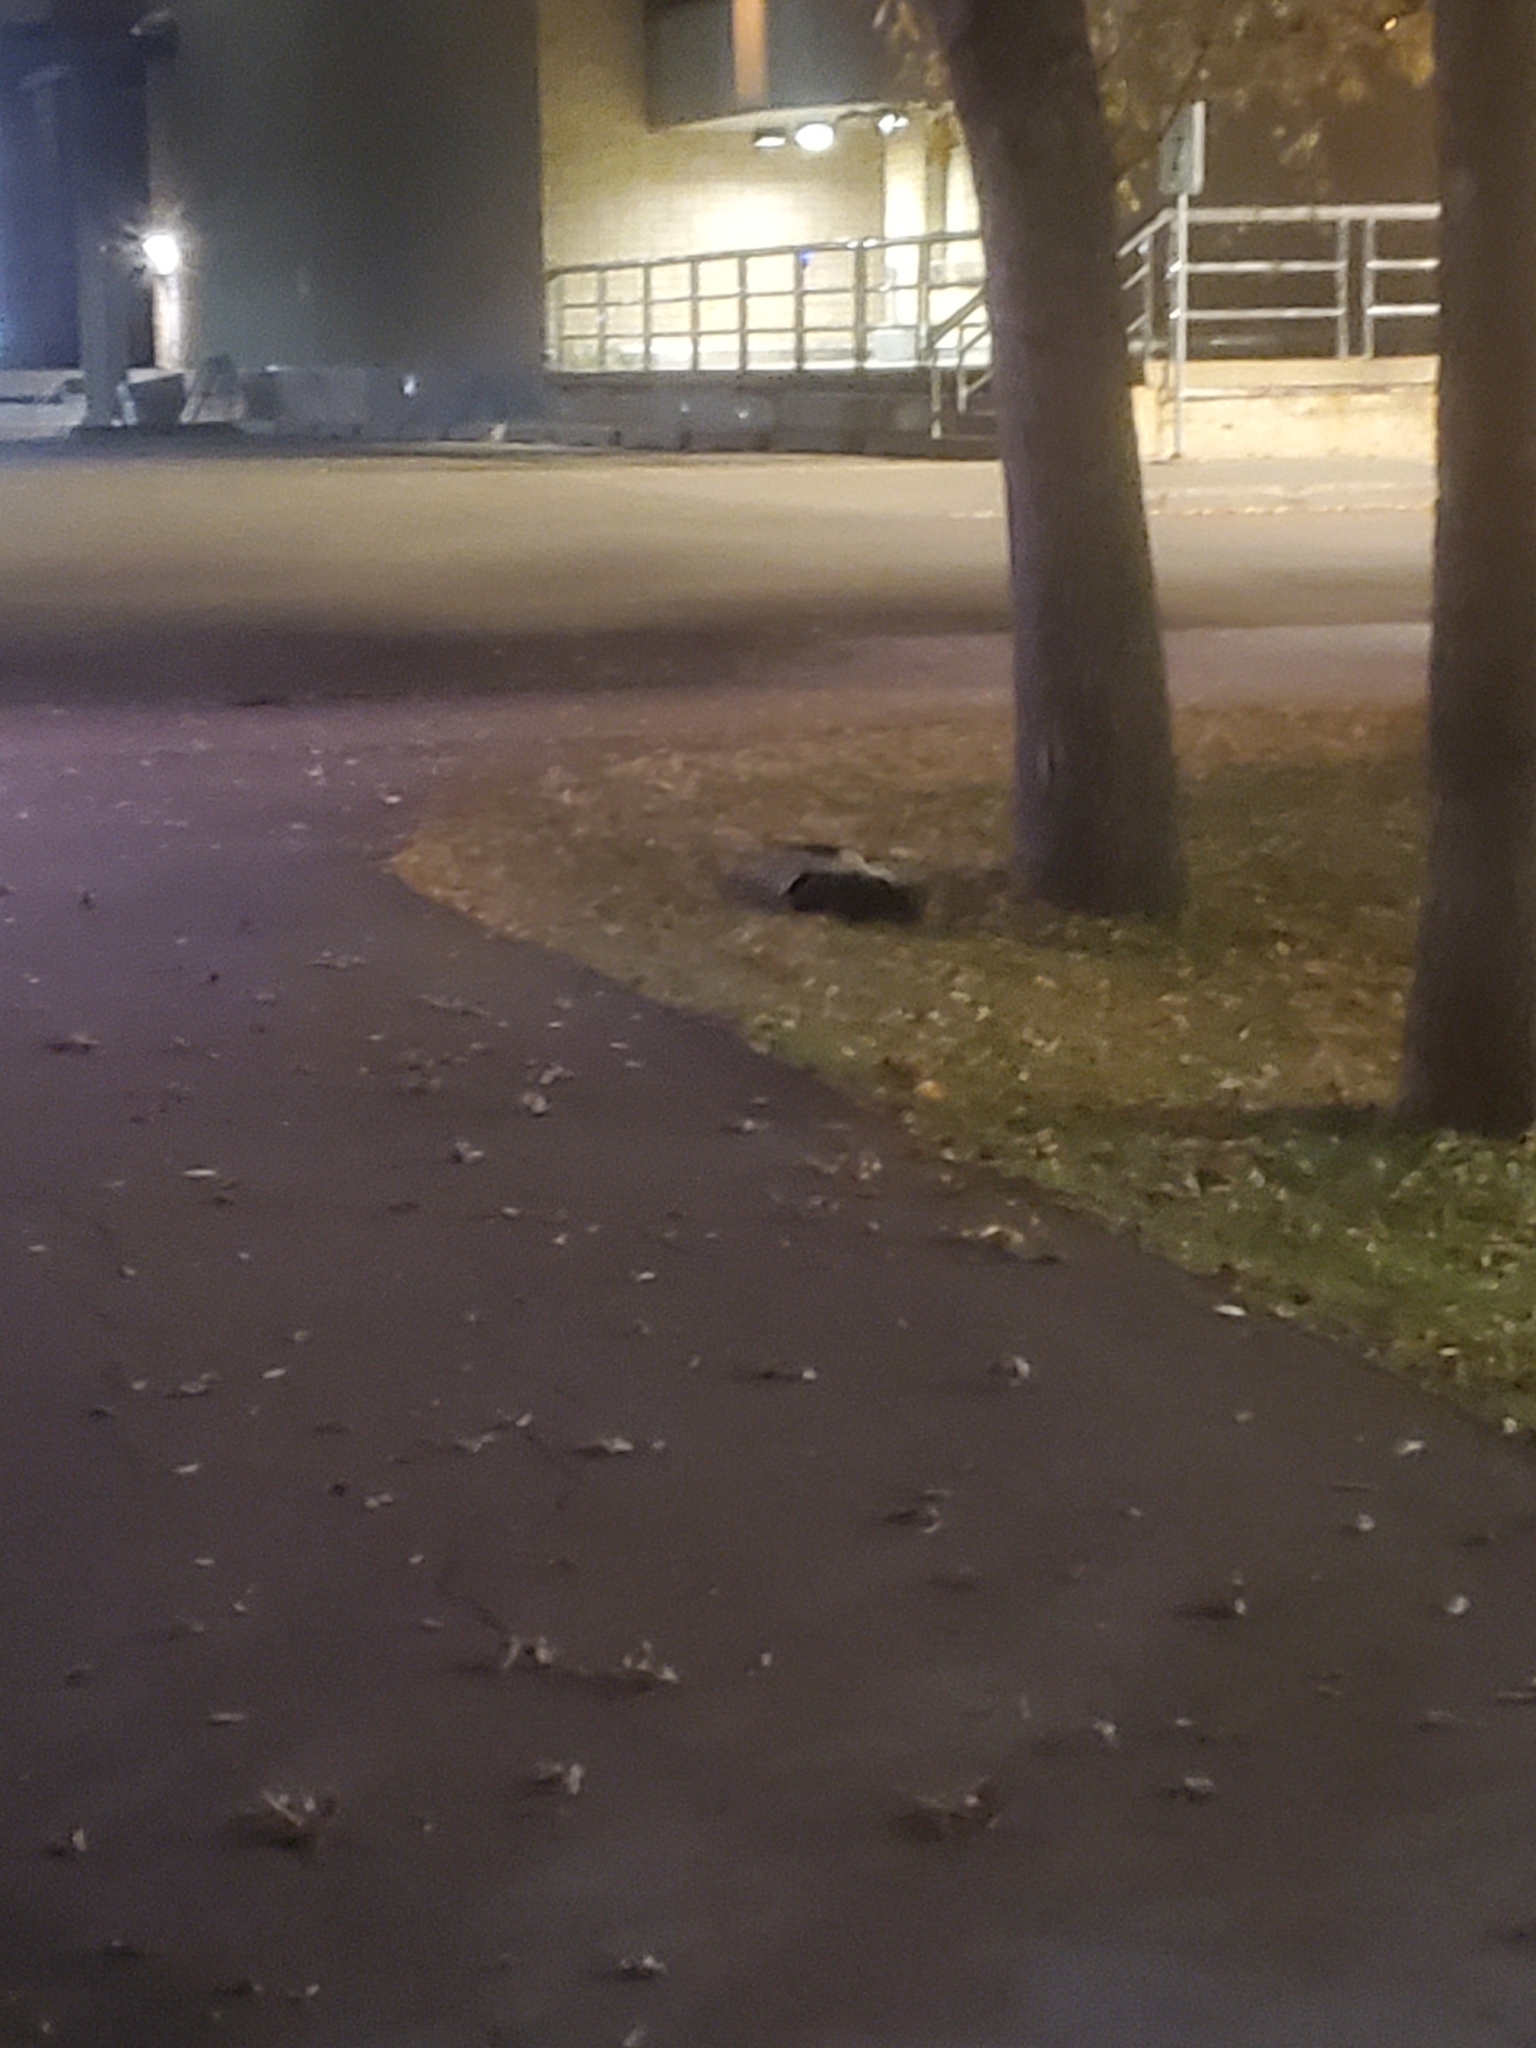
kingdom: Animalia
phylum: Chordata
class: Mammalia
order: Carnivora
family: Mephitidae
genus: Mephitis
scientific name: Mephitis mephitis
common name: Striped skunk
